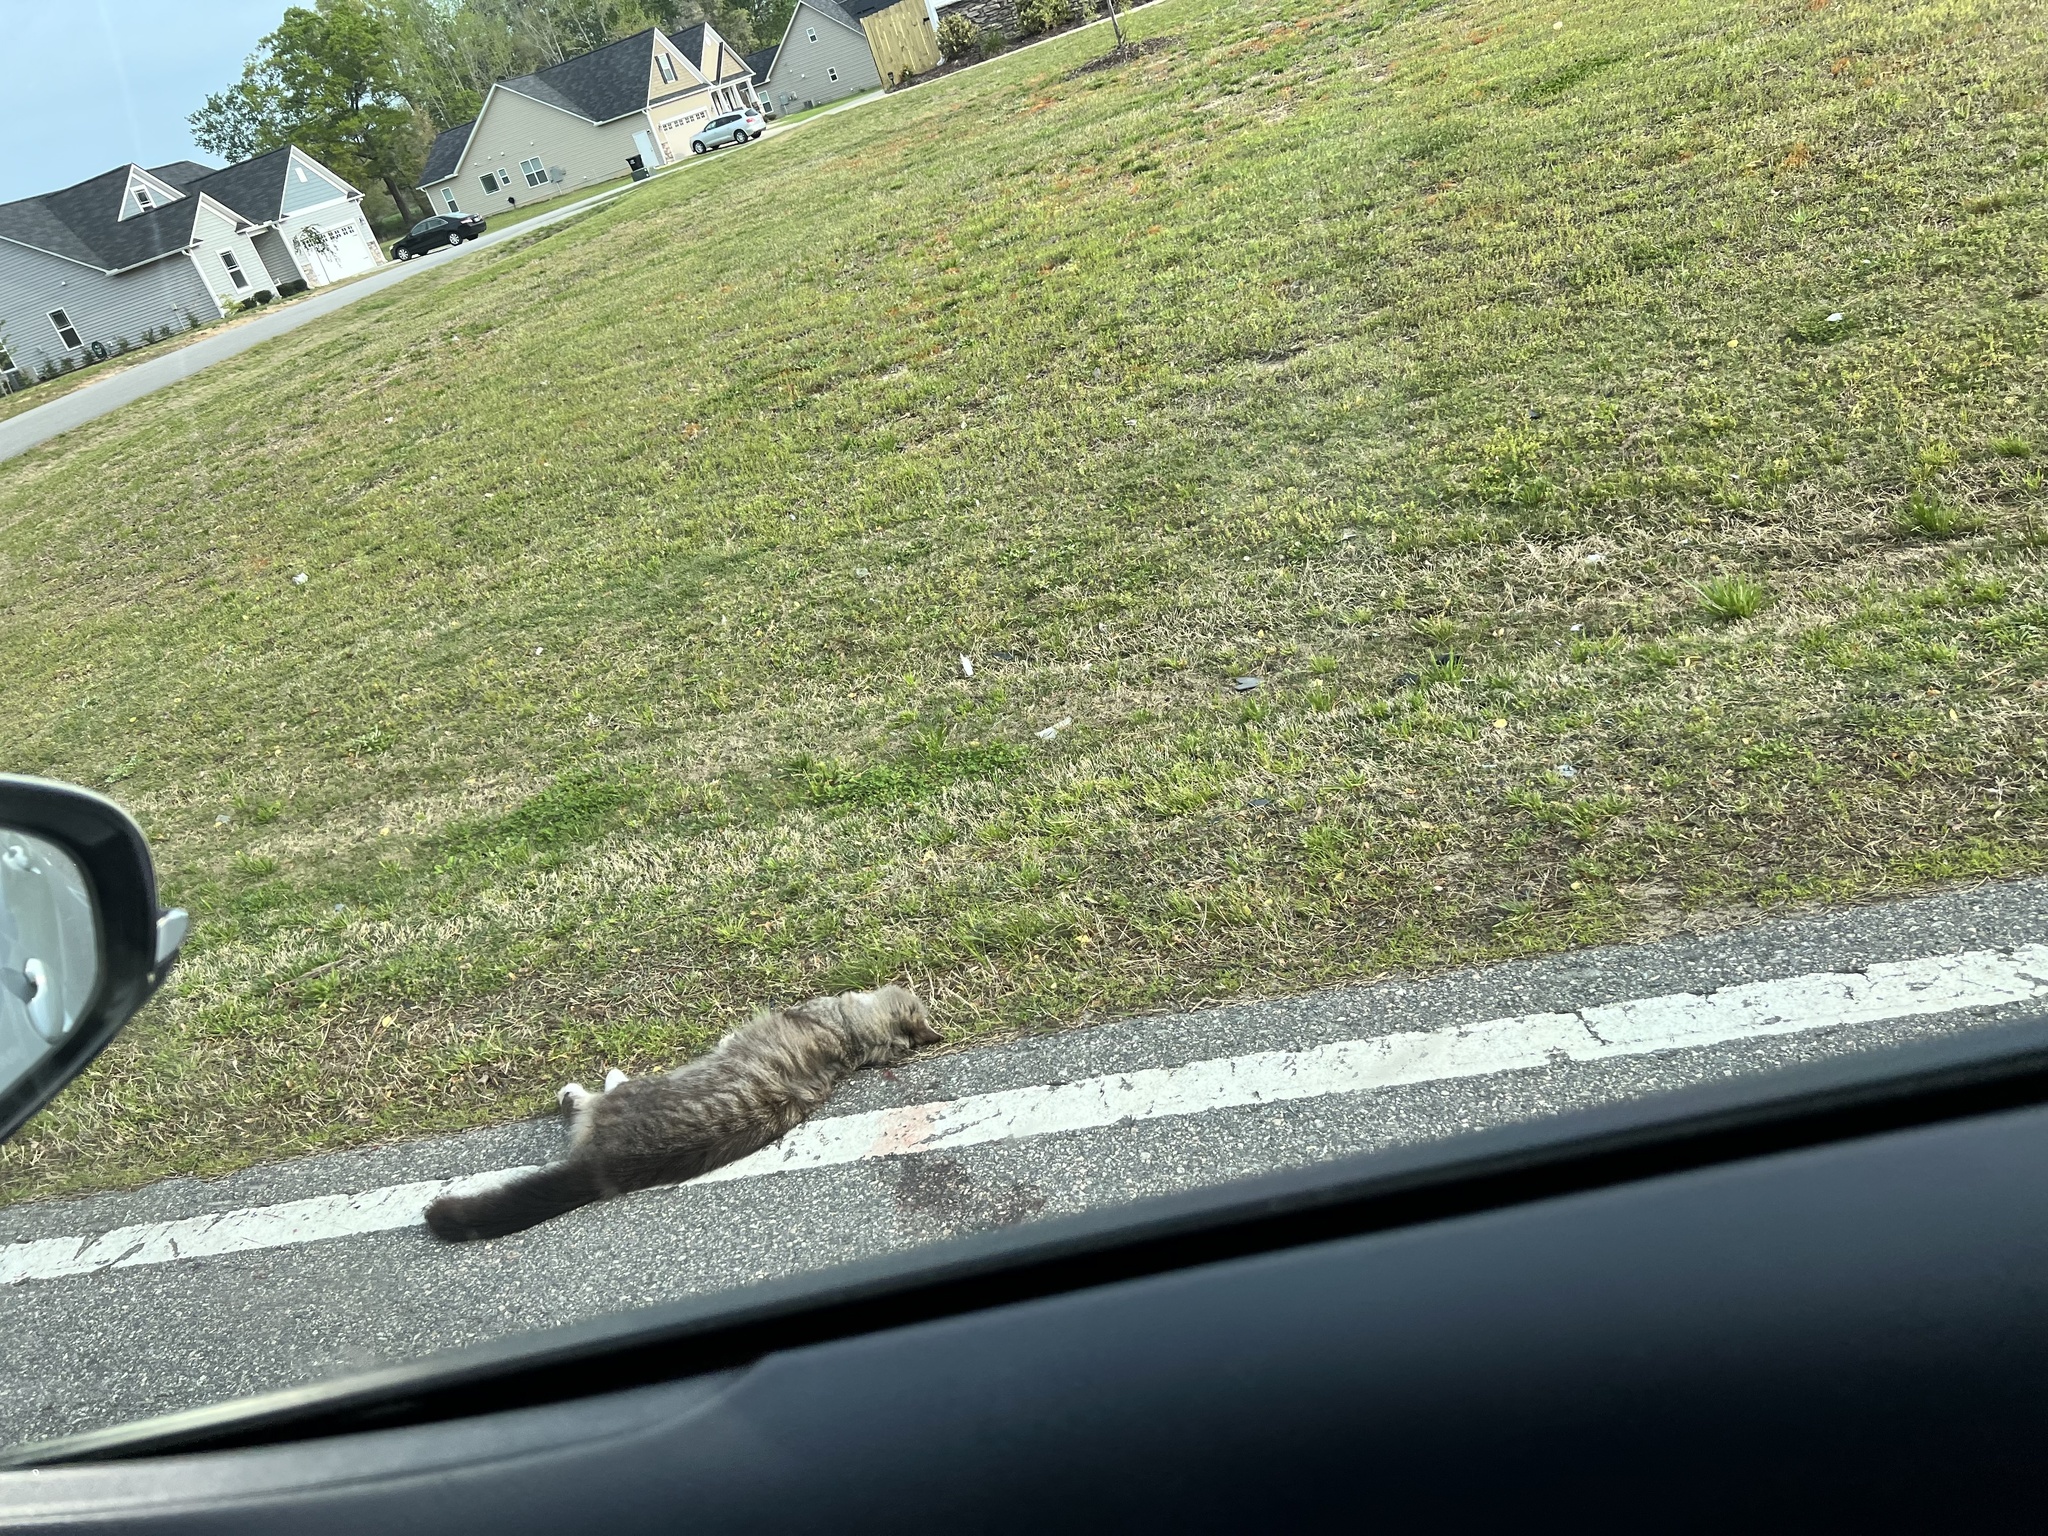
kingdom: Animalia
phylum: Chordata
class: Mammalia
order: Carnivora
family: Felidae
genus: Felis
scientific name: Felis catus
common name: Domestic cat
